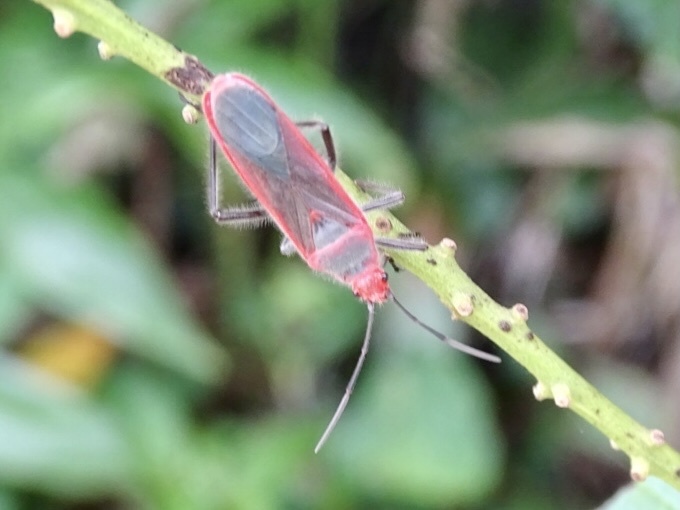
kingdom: Animalia
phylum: Arthropoda
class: Insecta
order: Hemiptera
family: Lygaeidae
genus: Thunbergia
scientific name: Thunbergia marginatus
